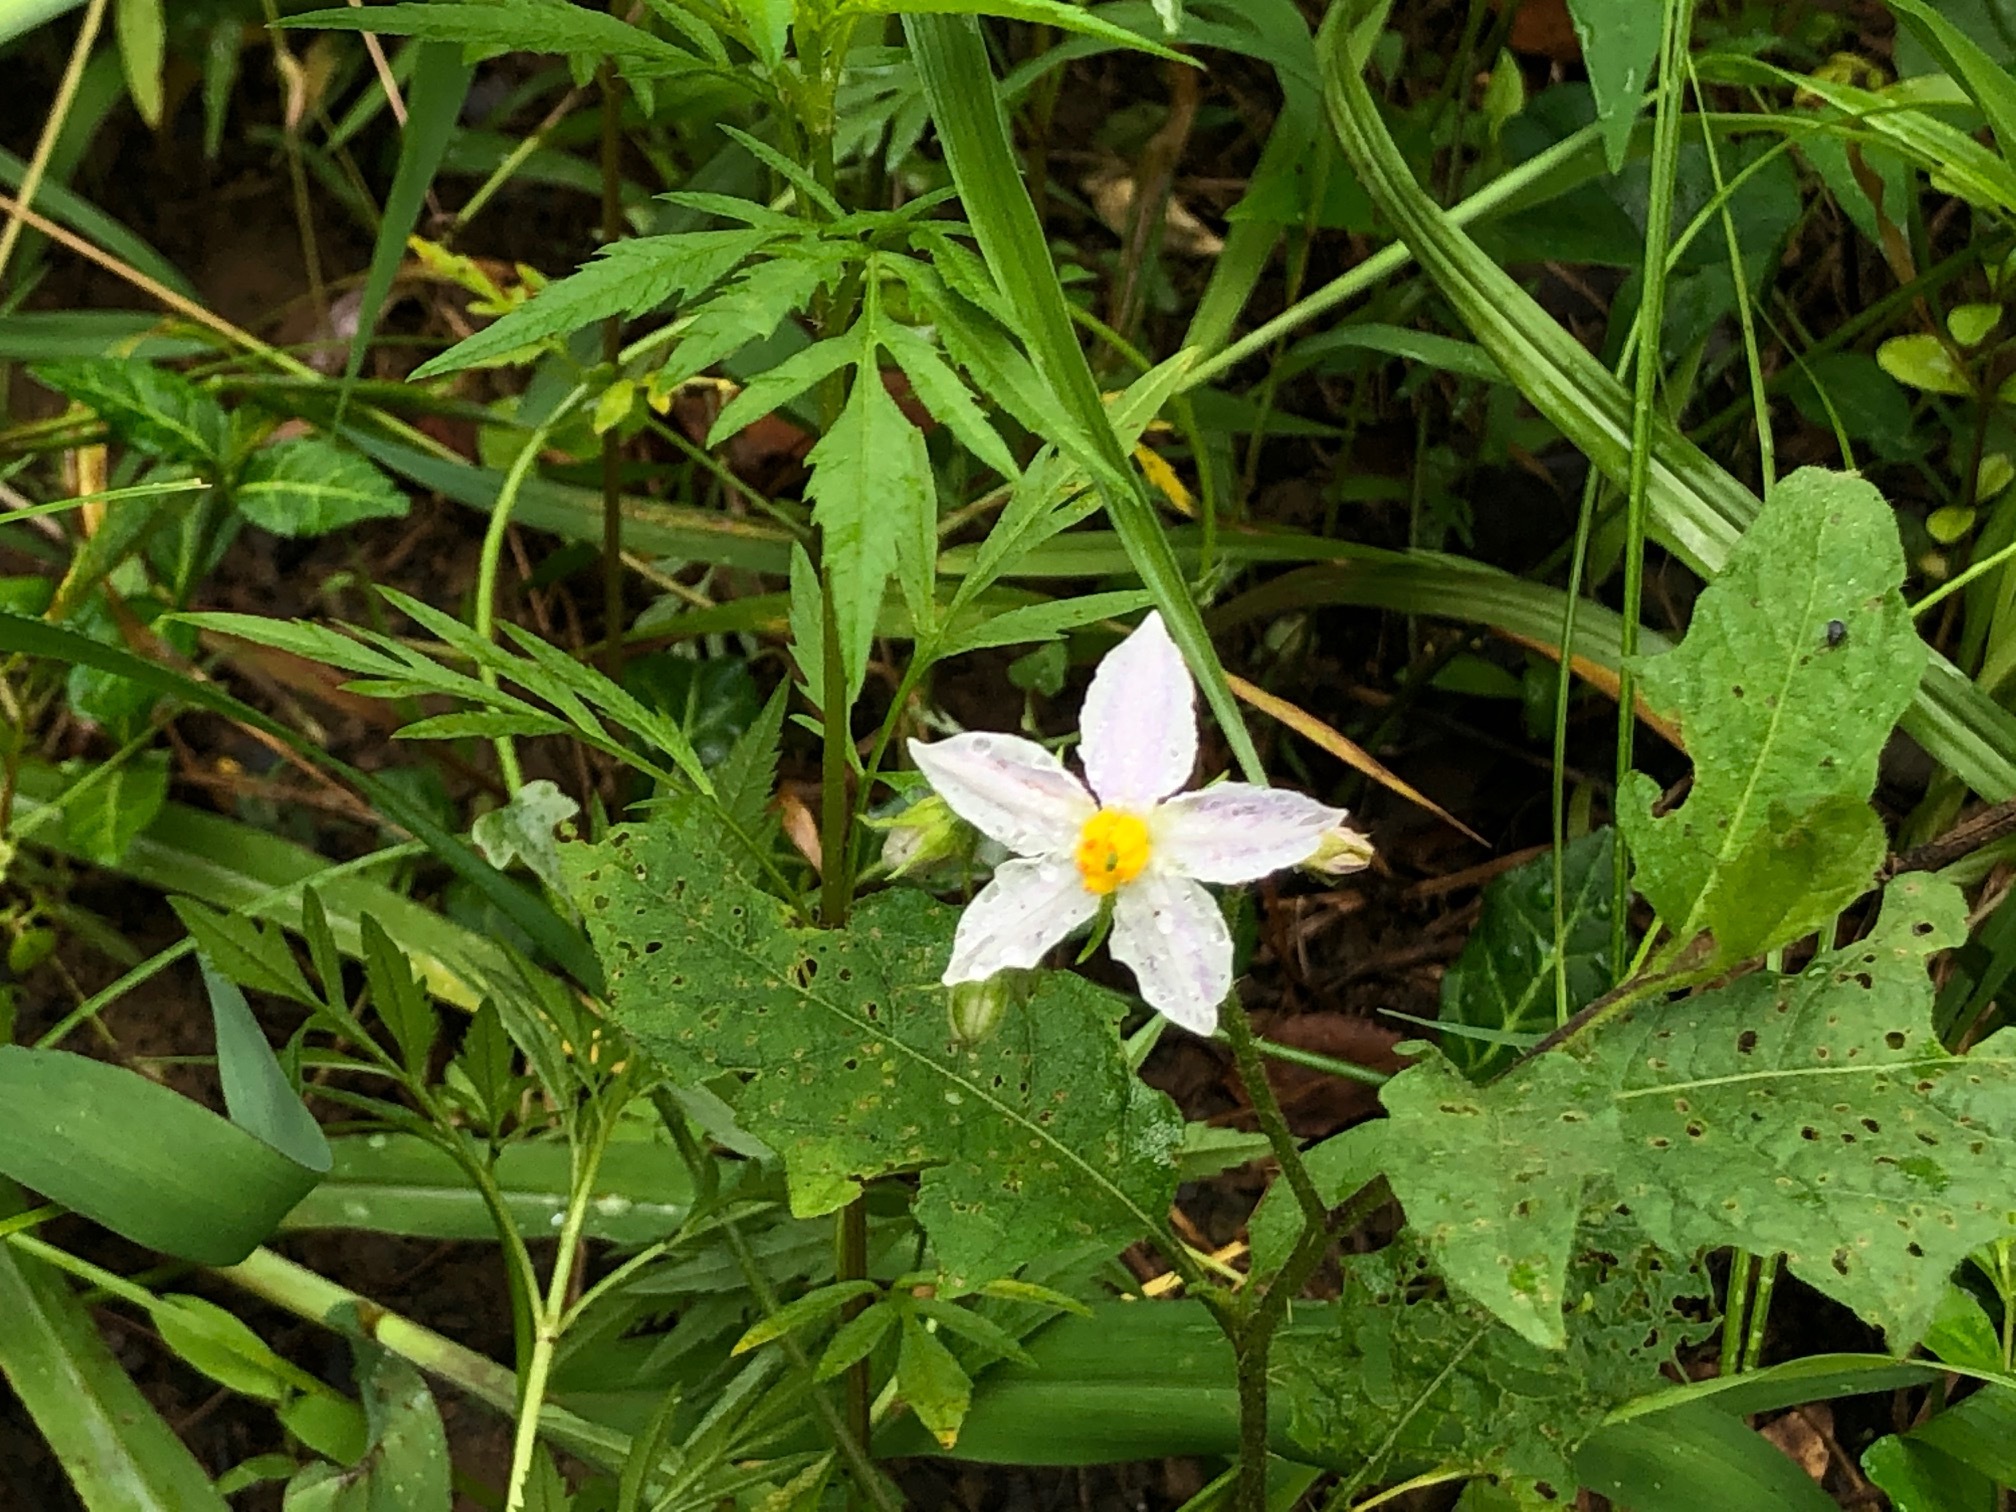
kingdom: Plantae
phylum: Tracheophyta
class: Magnoliopsida
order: Solanales
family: Solanaceae
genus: Solanum
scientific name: Solanum carolinense
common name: Horse-nettle
